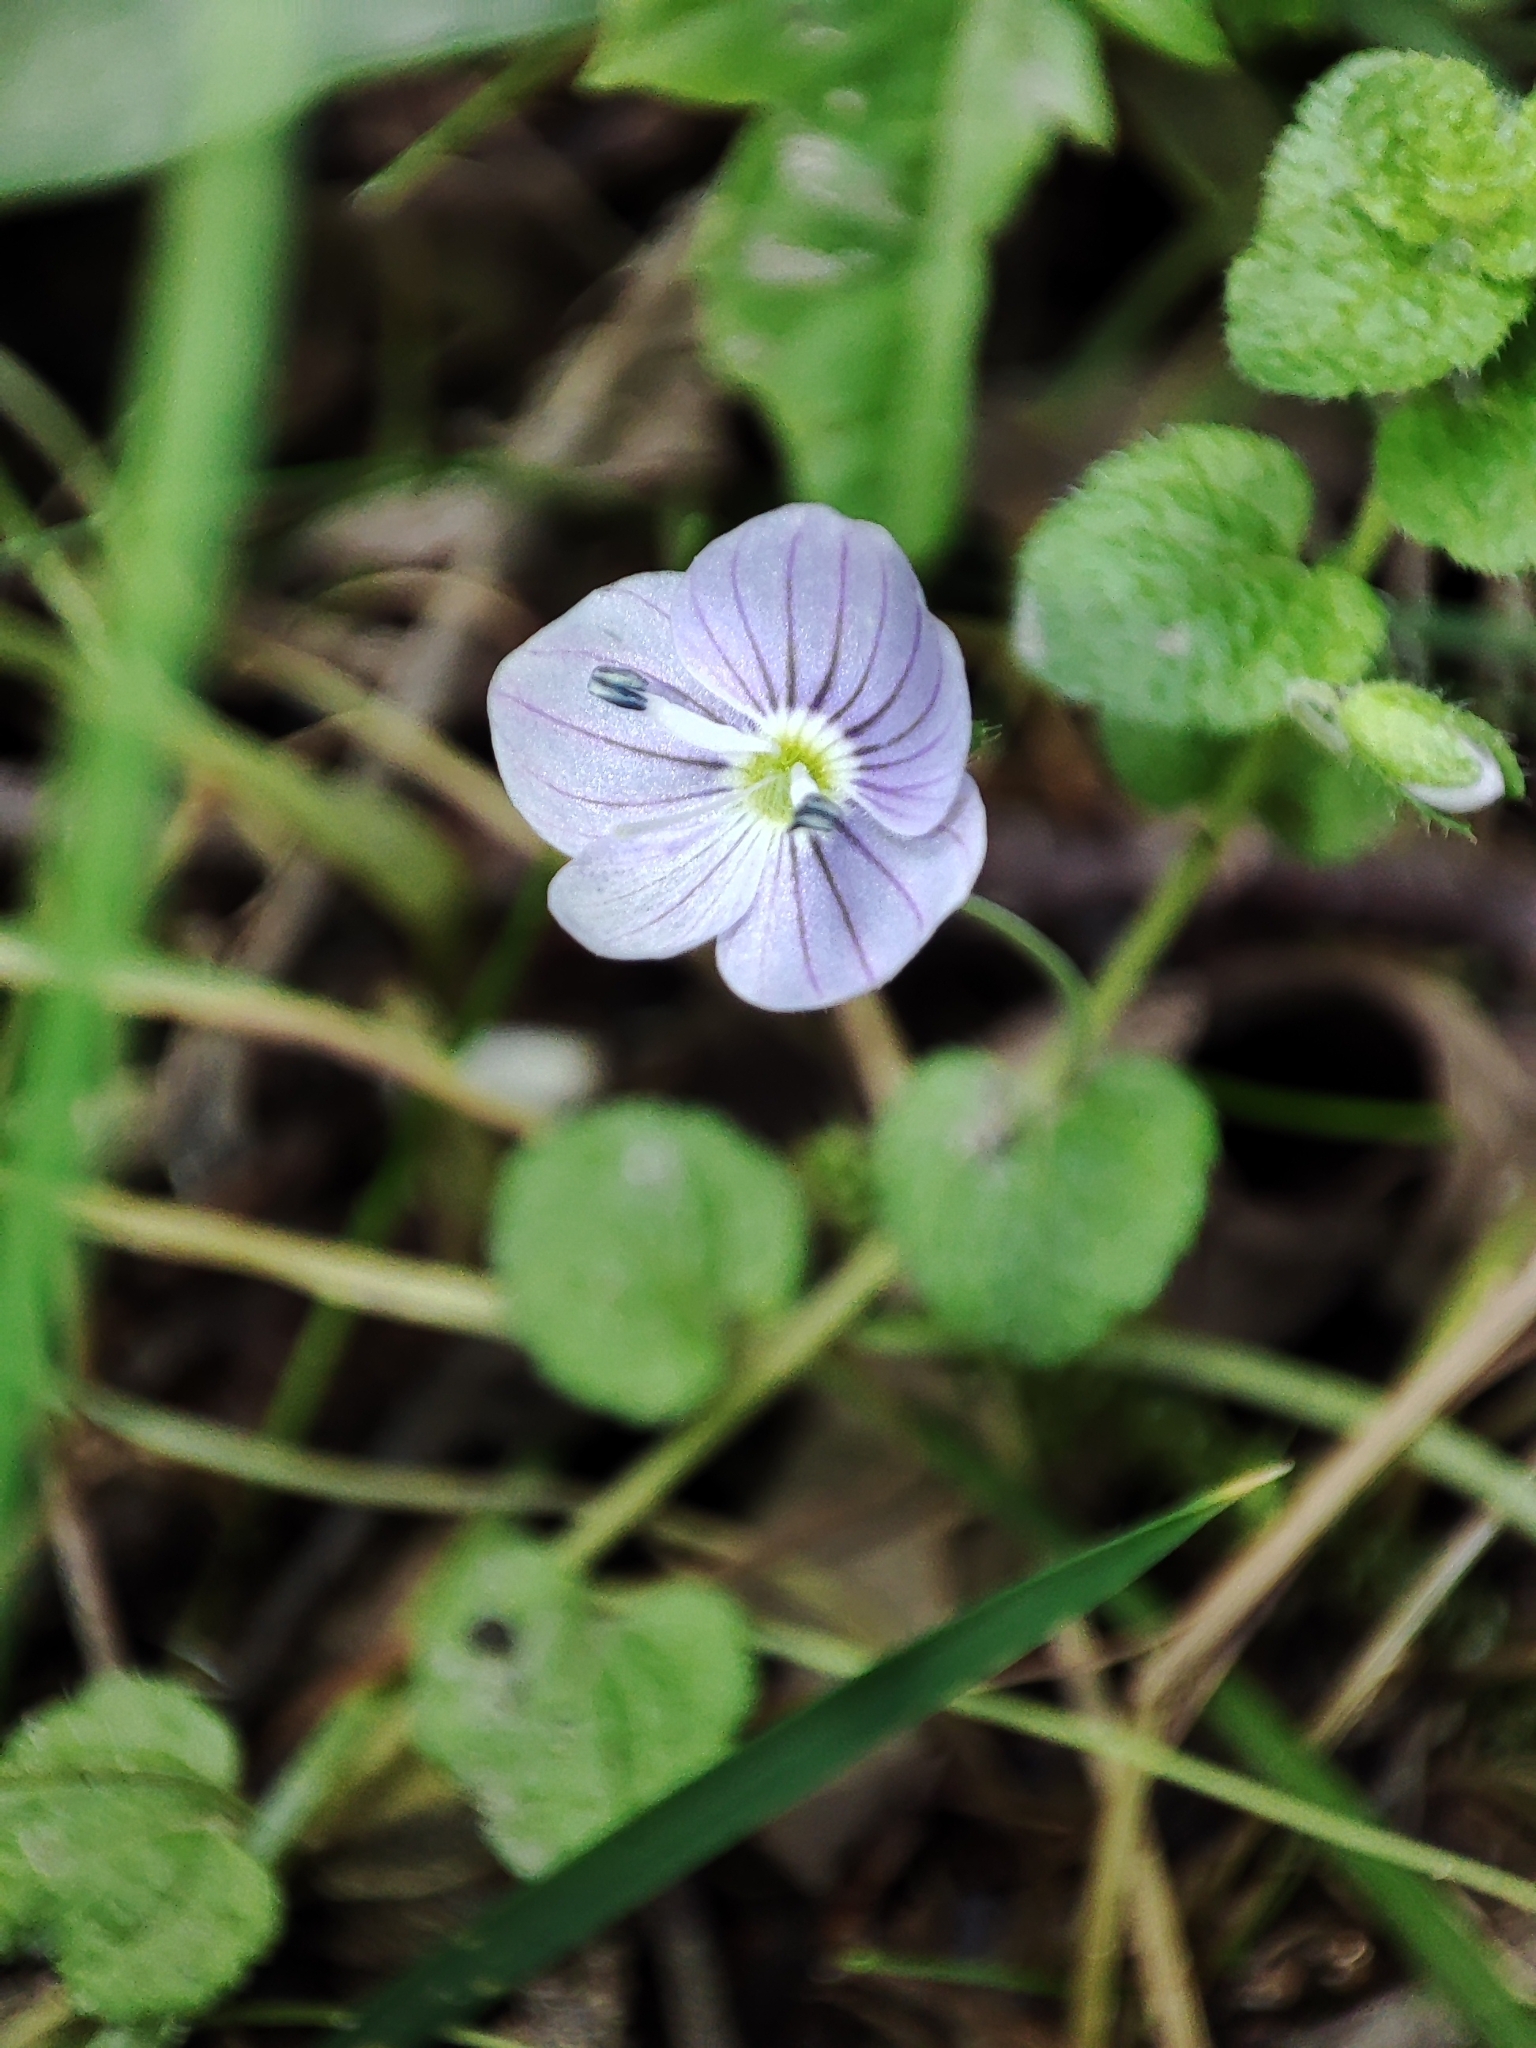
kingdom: Plantae
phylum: Tracheophyta
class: Magnoliopsida
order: Lamiales
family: Plantaginaceae
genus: Veronica
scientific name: Veronica filiformis
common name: Slender speedwell
